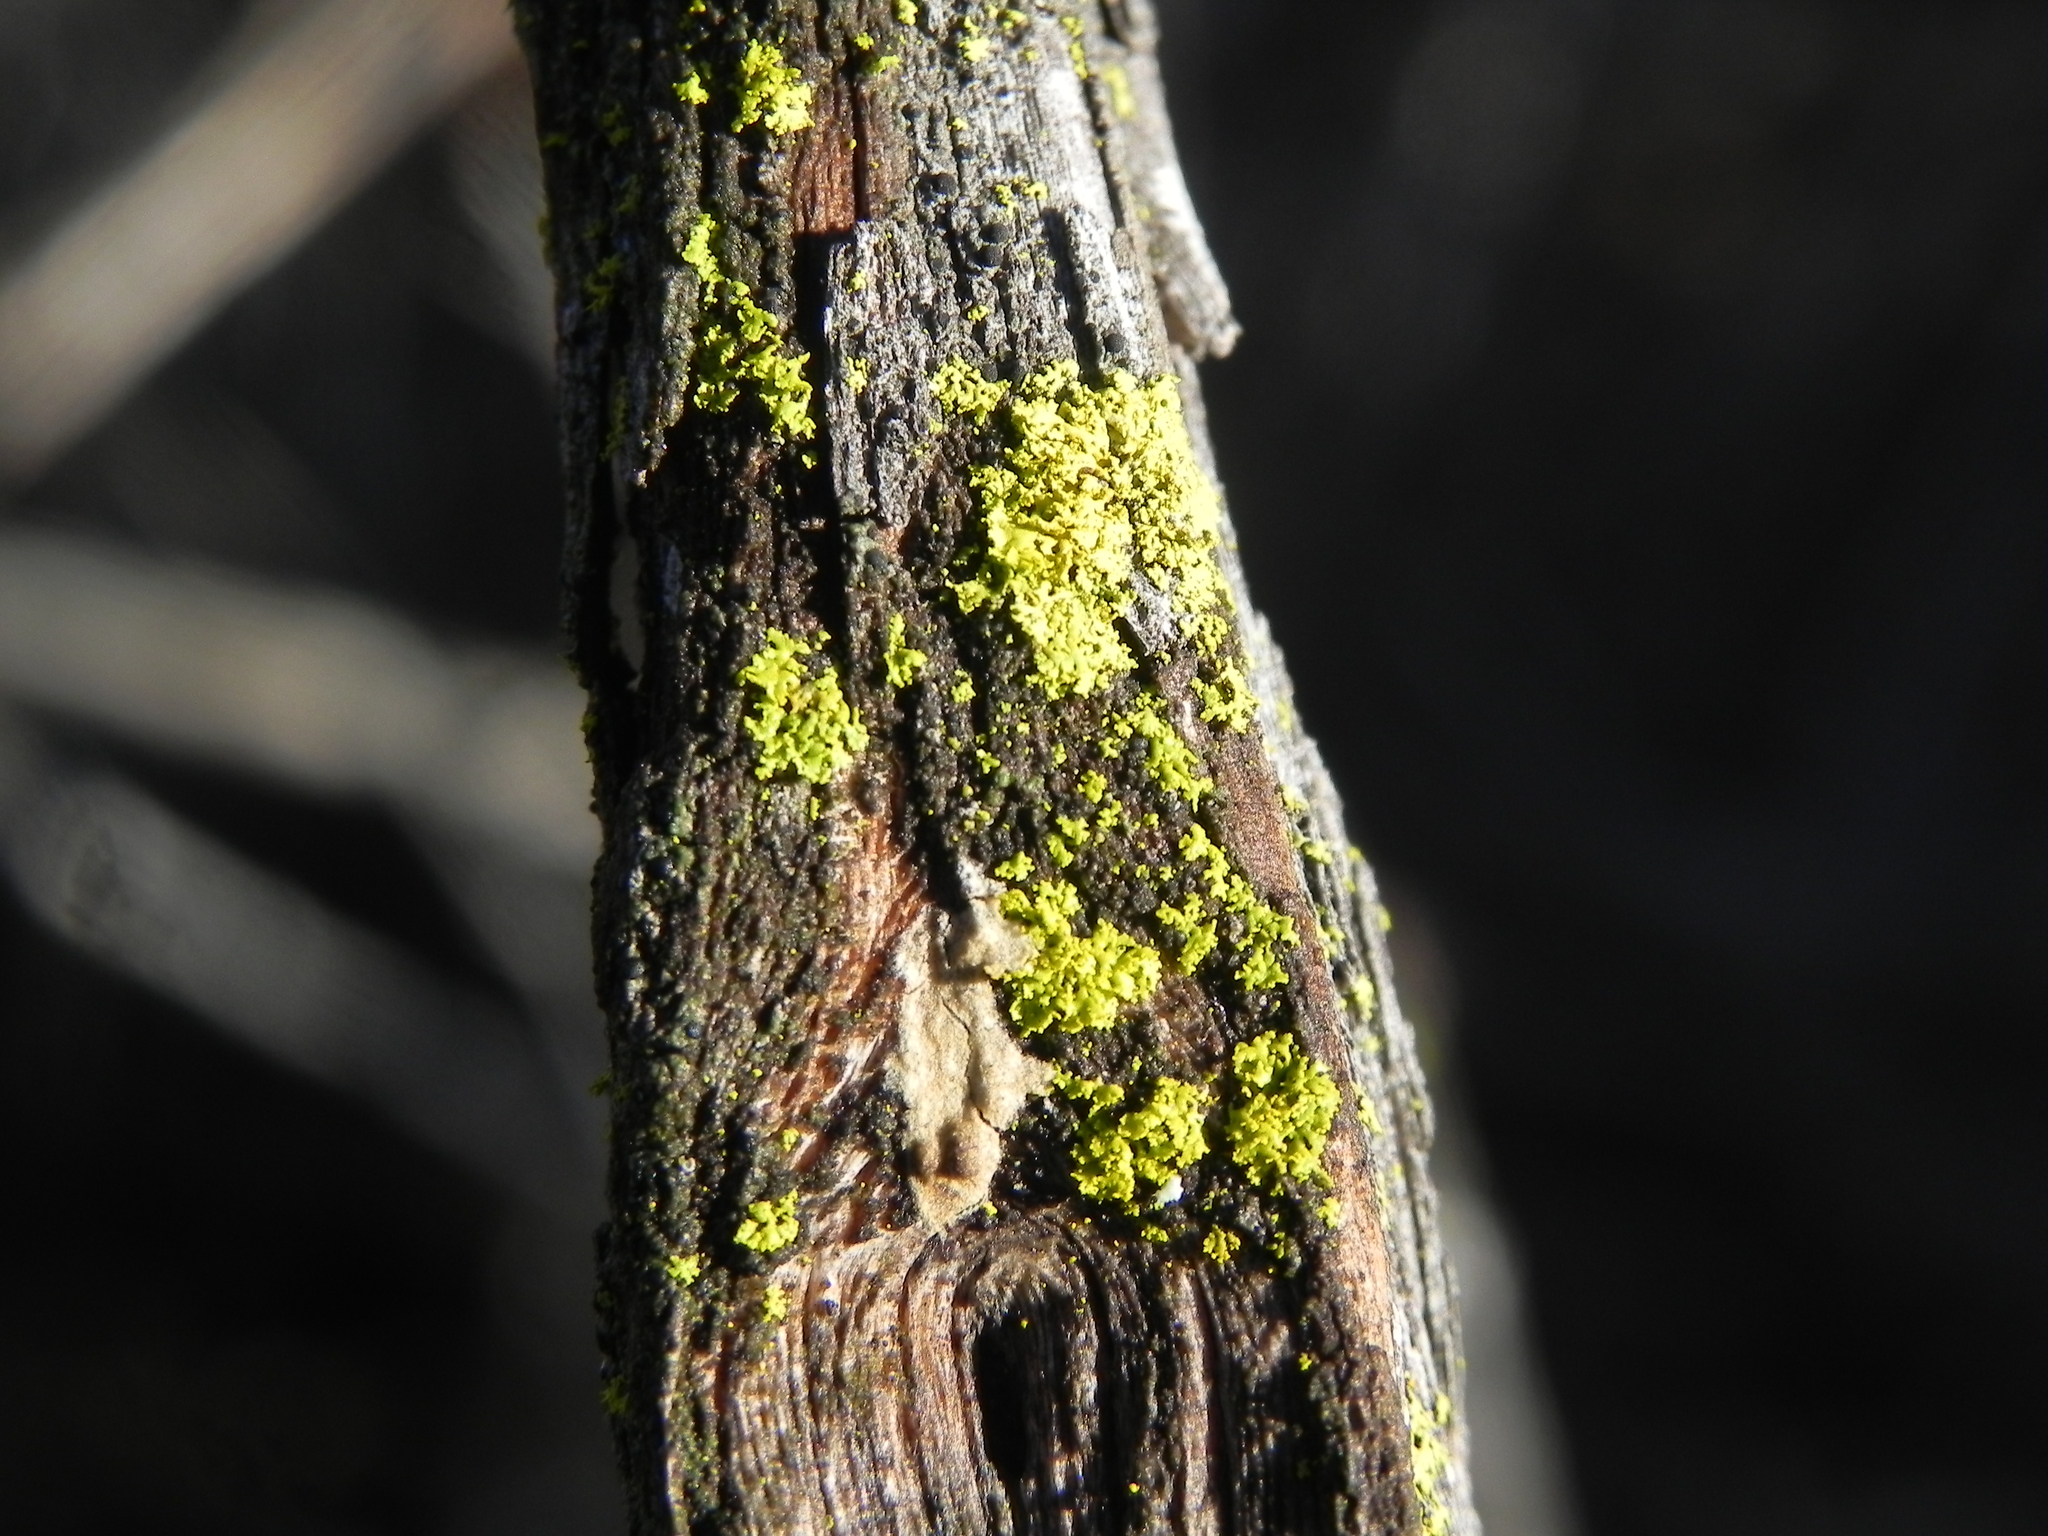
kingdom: Fungi
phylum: Ascomycota
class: Candelariomycetes
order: Candelariales
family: Candelariaceae
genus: Candelaria
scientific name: Candelaria pacifica
